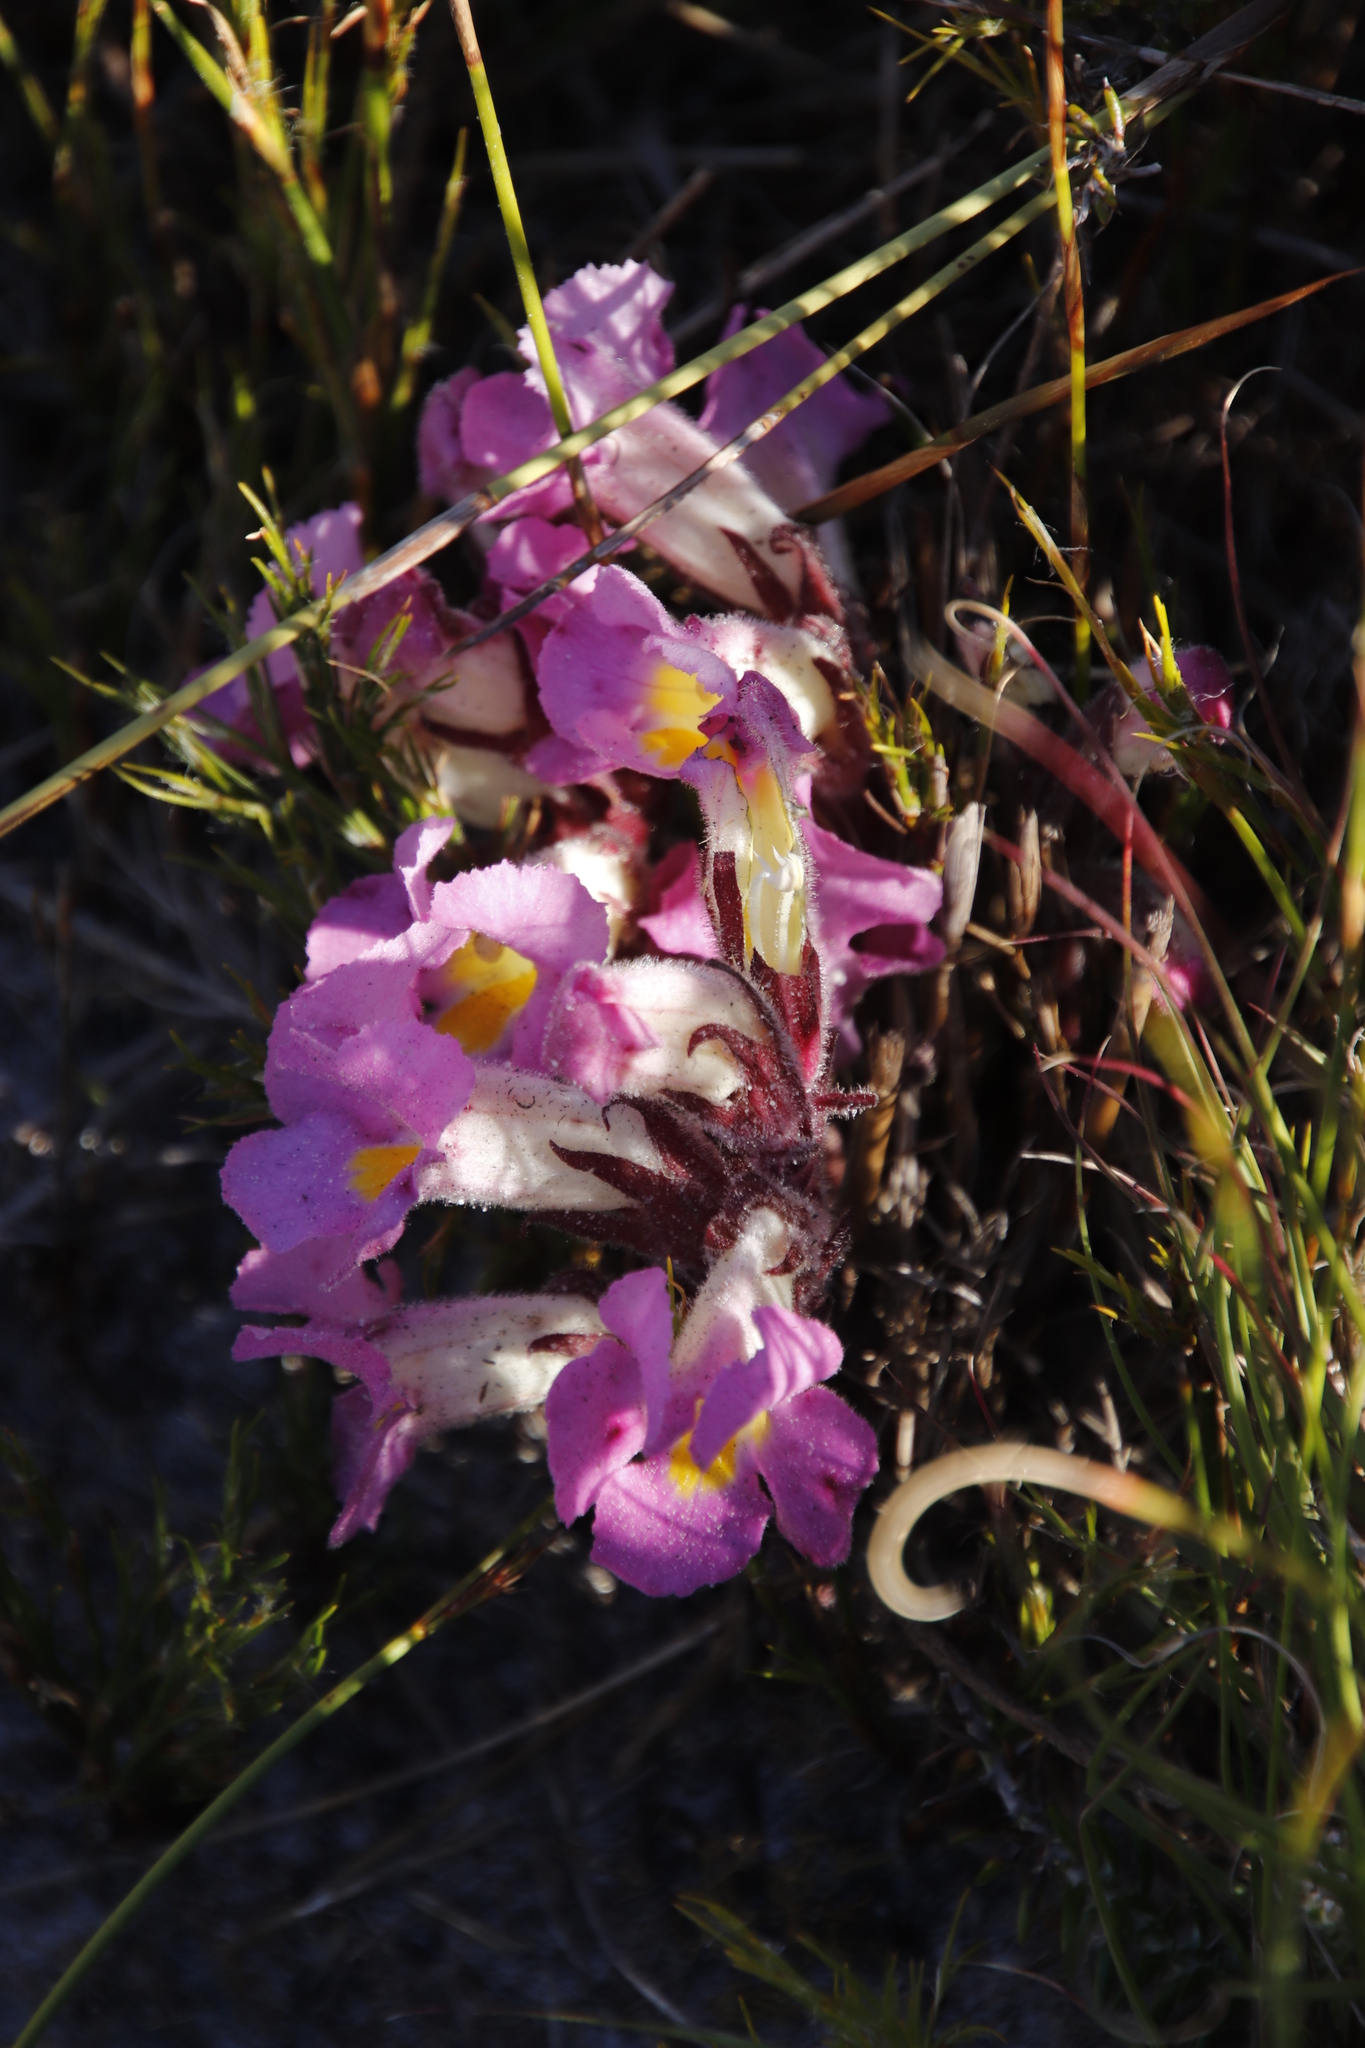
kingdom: Plantae
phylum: Tracheophyta
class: Magnoliopsida
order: Lamiales
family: Orobanchaceae
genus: Harveya
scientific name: Harveya purpurea
